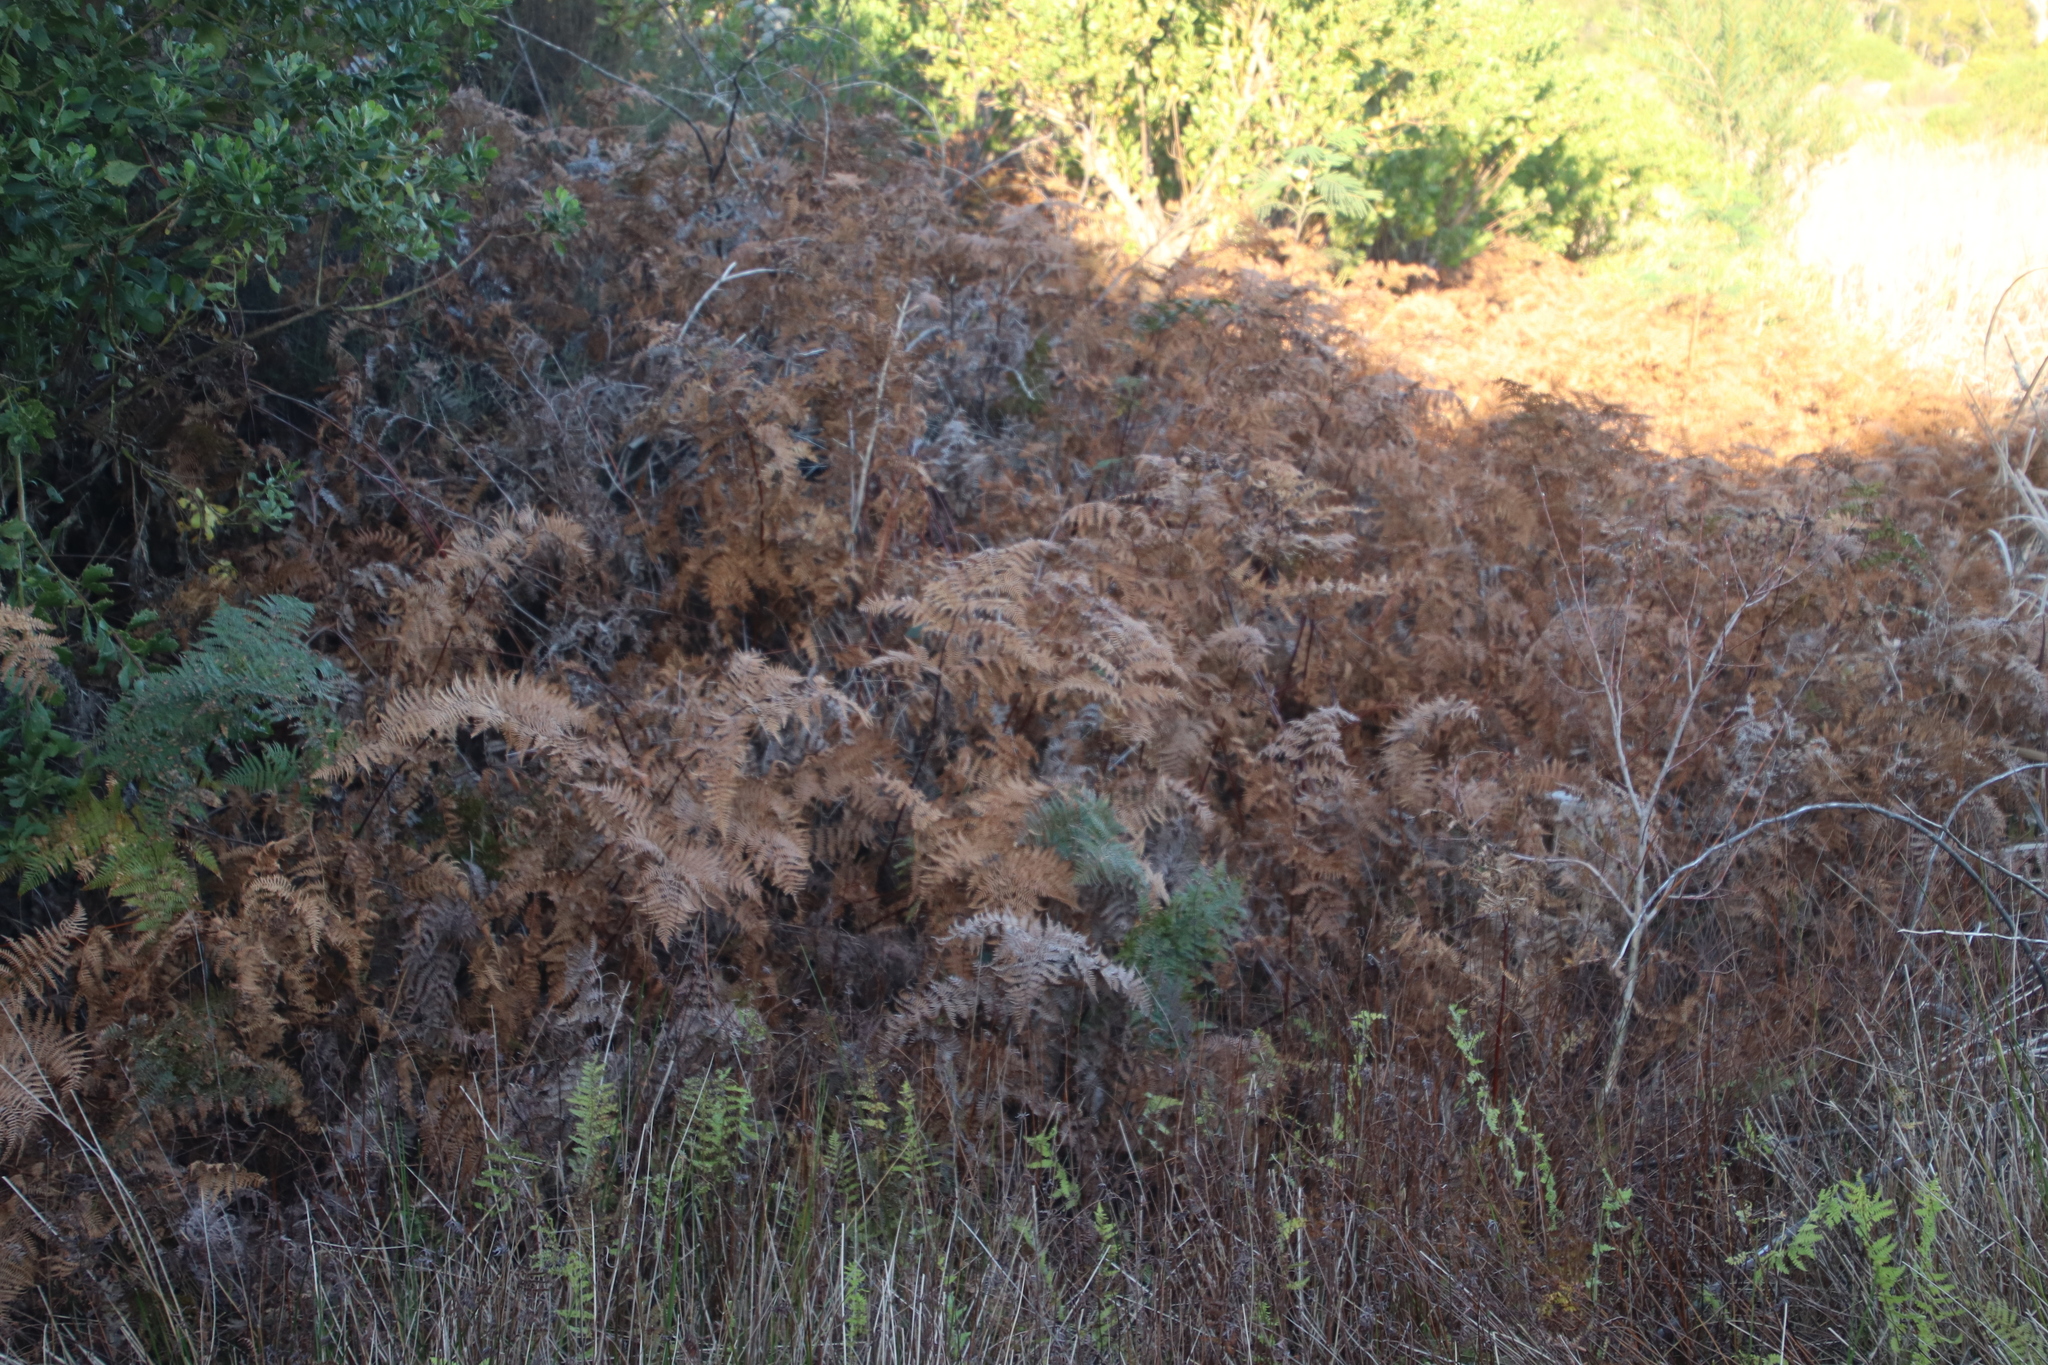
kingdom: Plantae
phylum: Tracheophyta
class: Polypodiopsida
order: Polypodiales
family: Dennstaedtiaceae
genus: Pteridium
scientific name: Pteridium aquilinum
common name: Bracken
